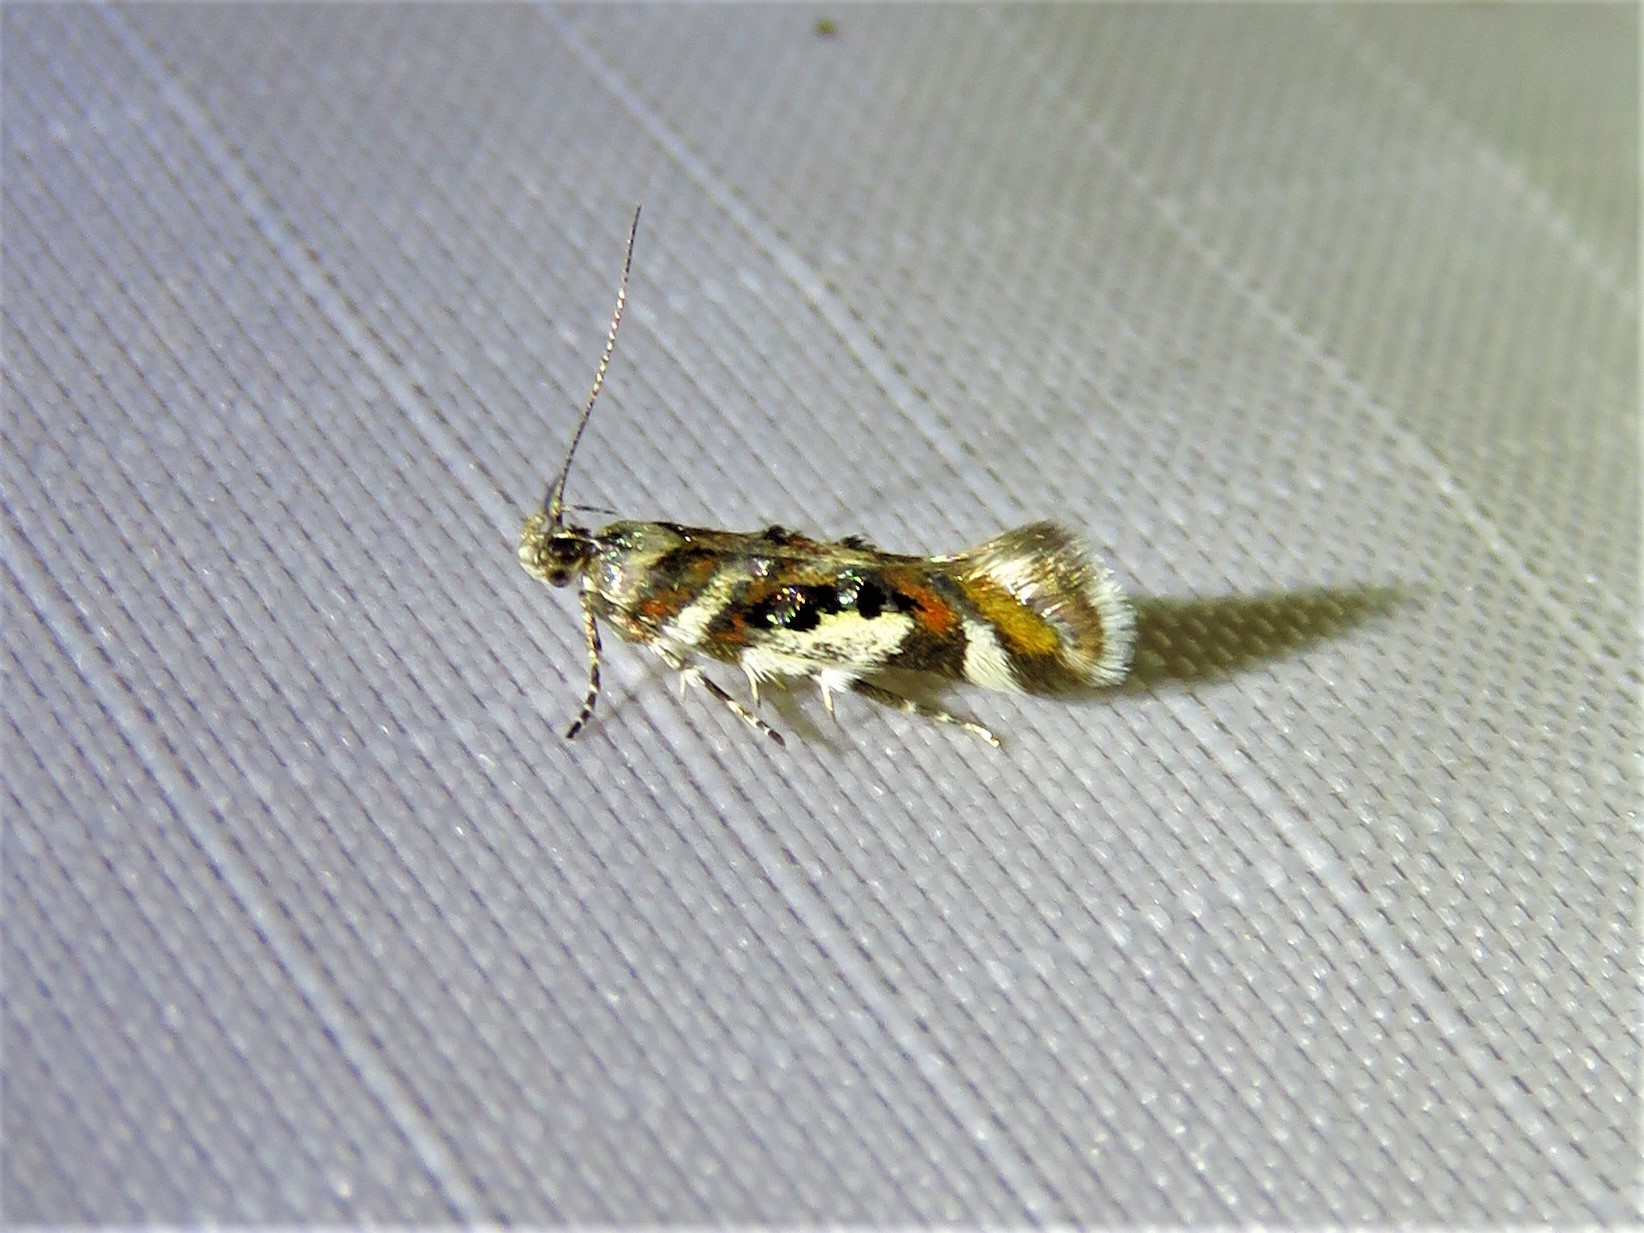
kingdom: Animalia
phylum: Arthropoda
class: Insecta
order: Lepidoptera
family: Gelechiidae
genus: Aristotelia
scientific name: Aristotelia elegantella
